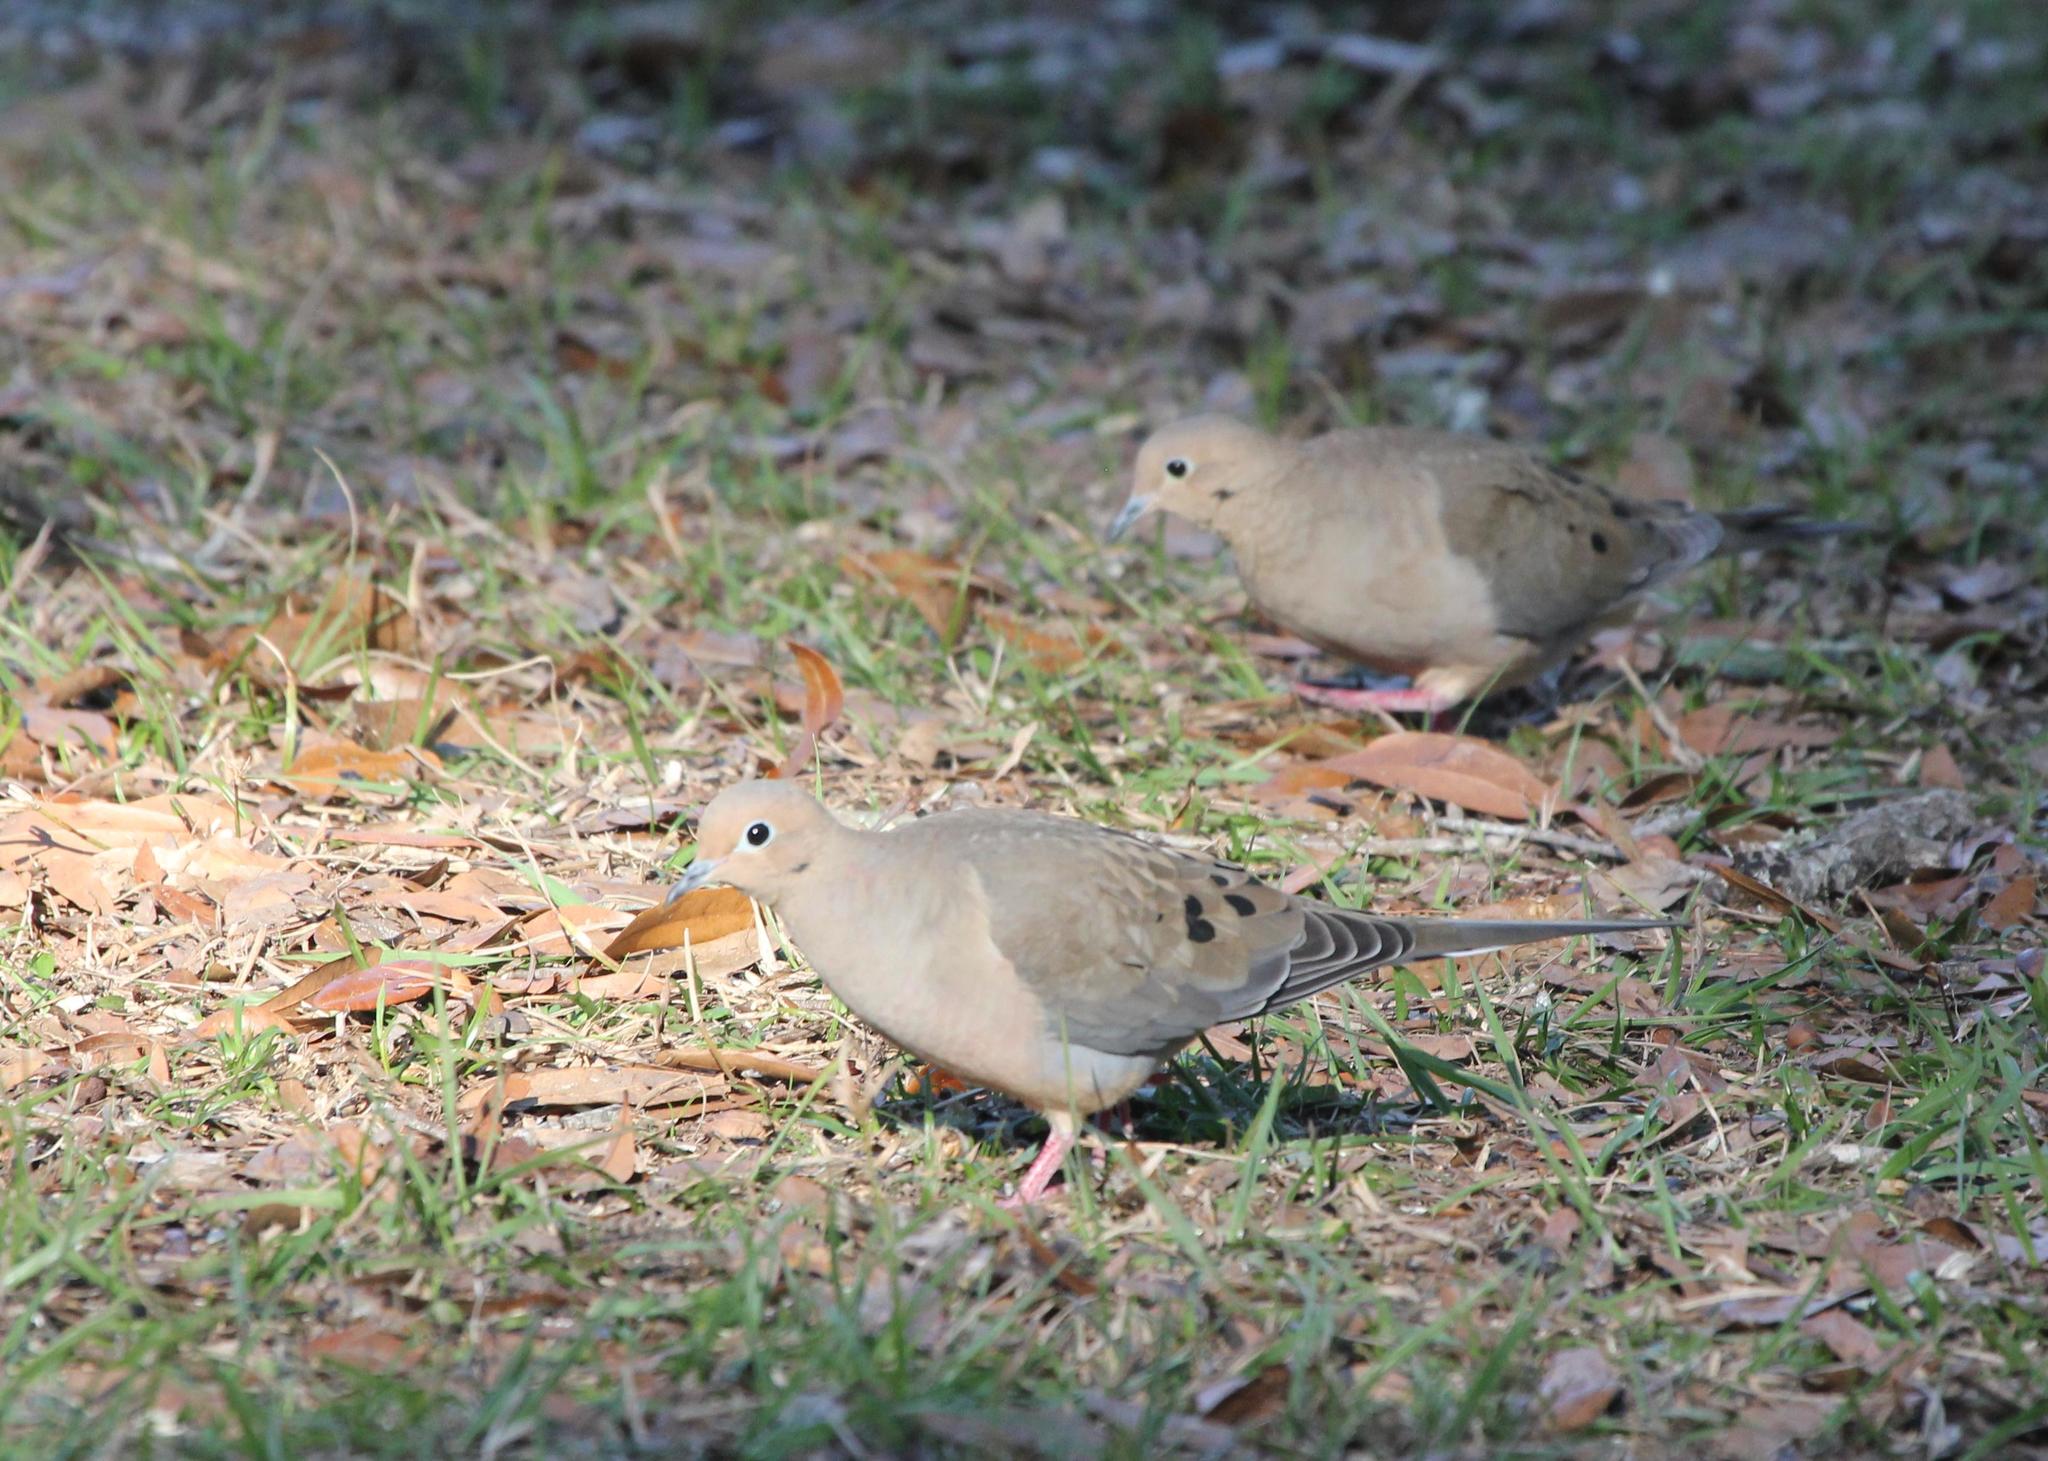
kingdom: Animalia
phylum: Chordata
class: Aves
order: Columbiformes
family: Columbidae
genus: Zenaida
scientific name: Zenaida macroura
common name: Mourning dove
